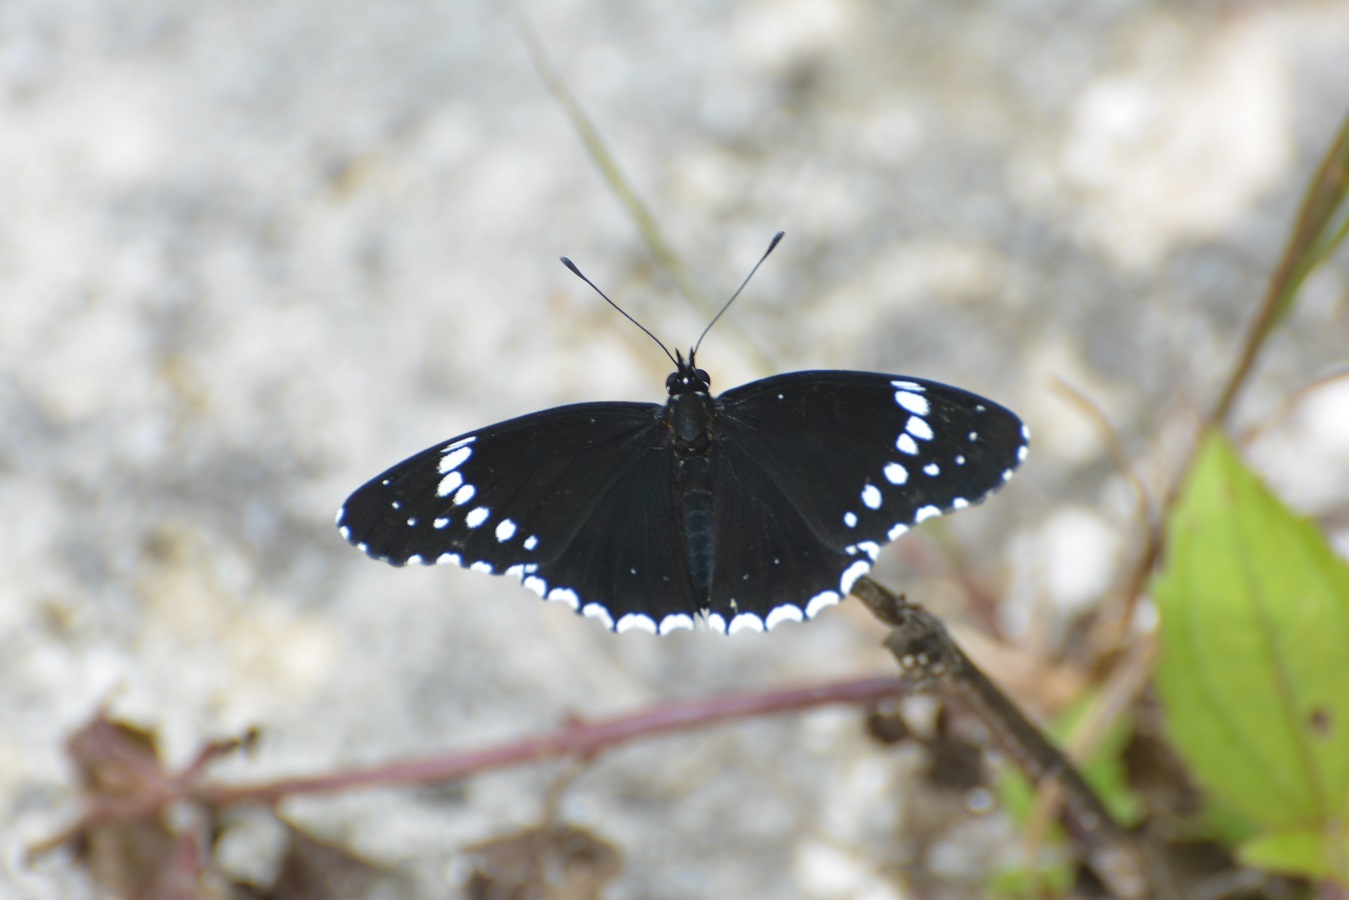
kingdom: Animalia
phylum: Arthropoda
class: Insecta
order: Lepidoptera
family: Nymphalidae
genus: Chlosyne
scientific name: Chlosyne hippodrome
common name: Simple patch
